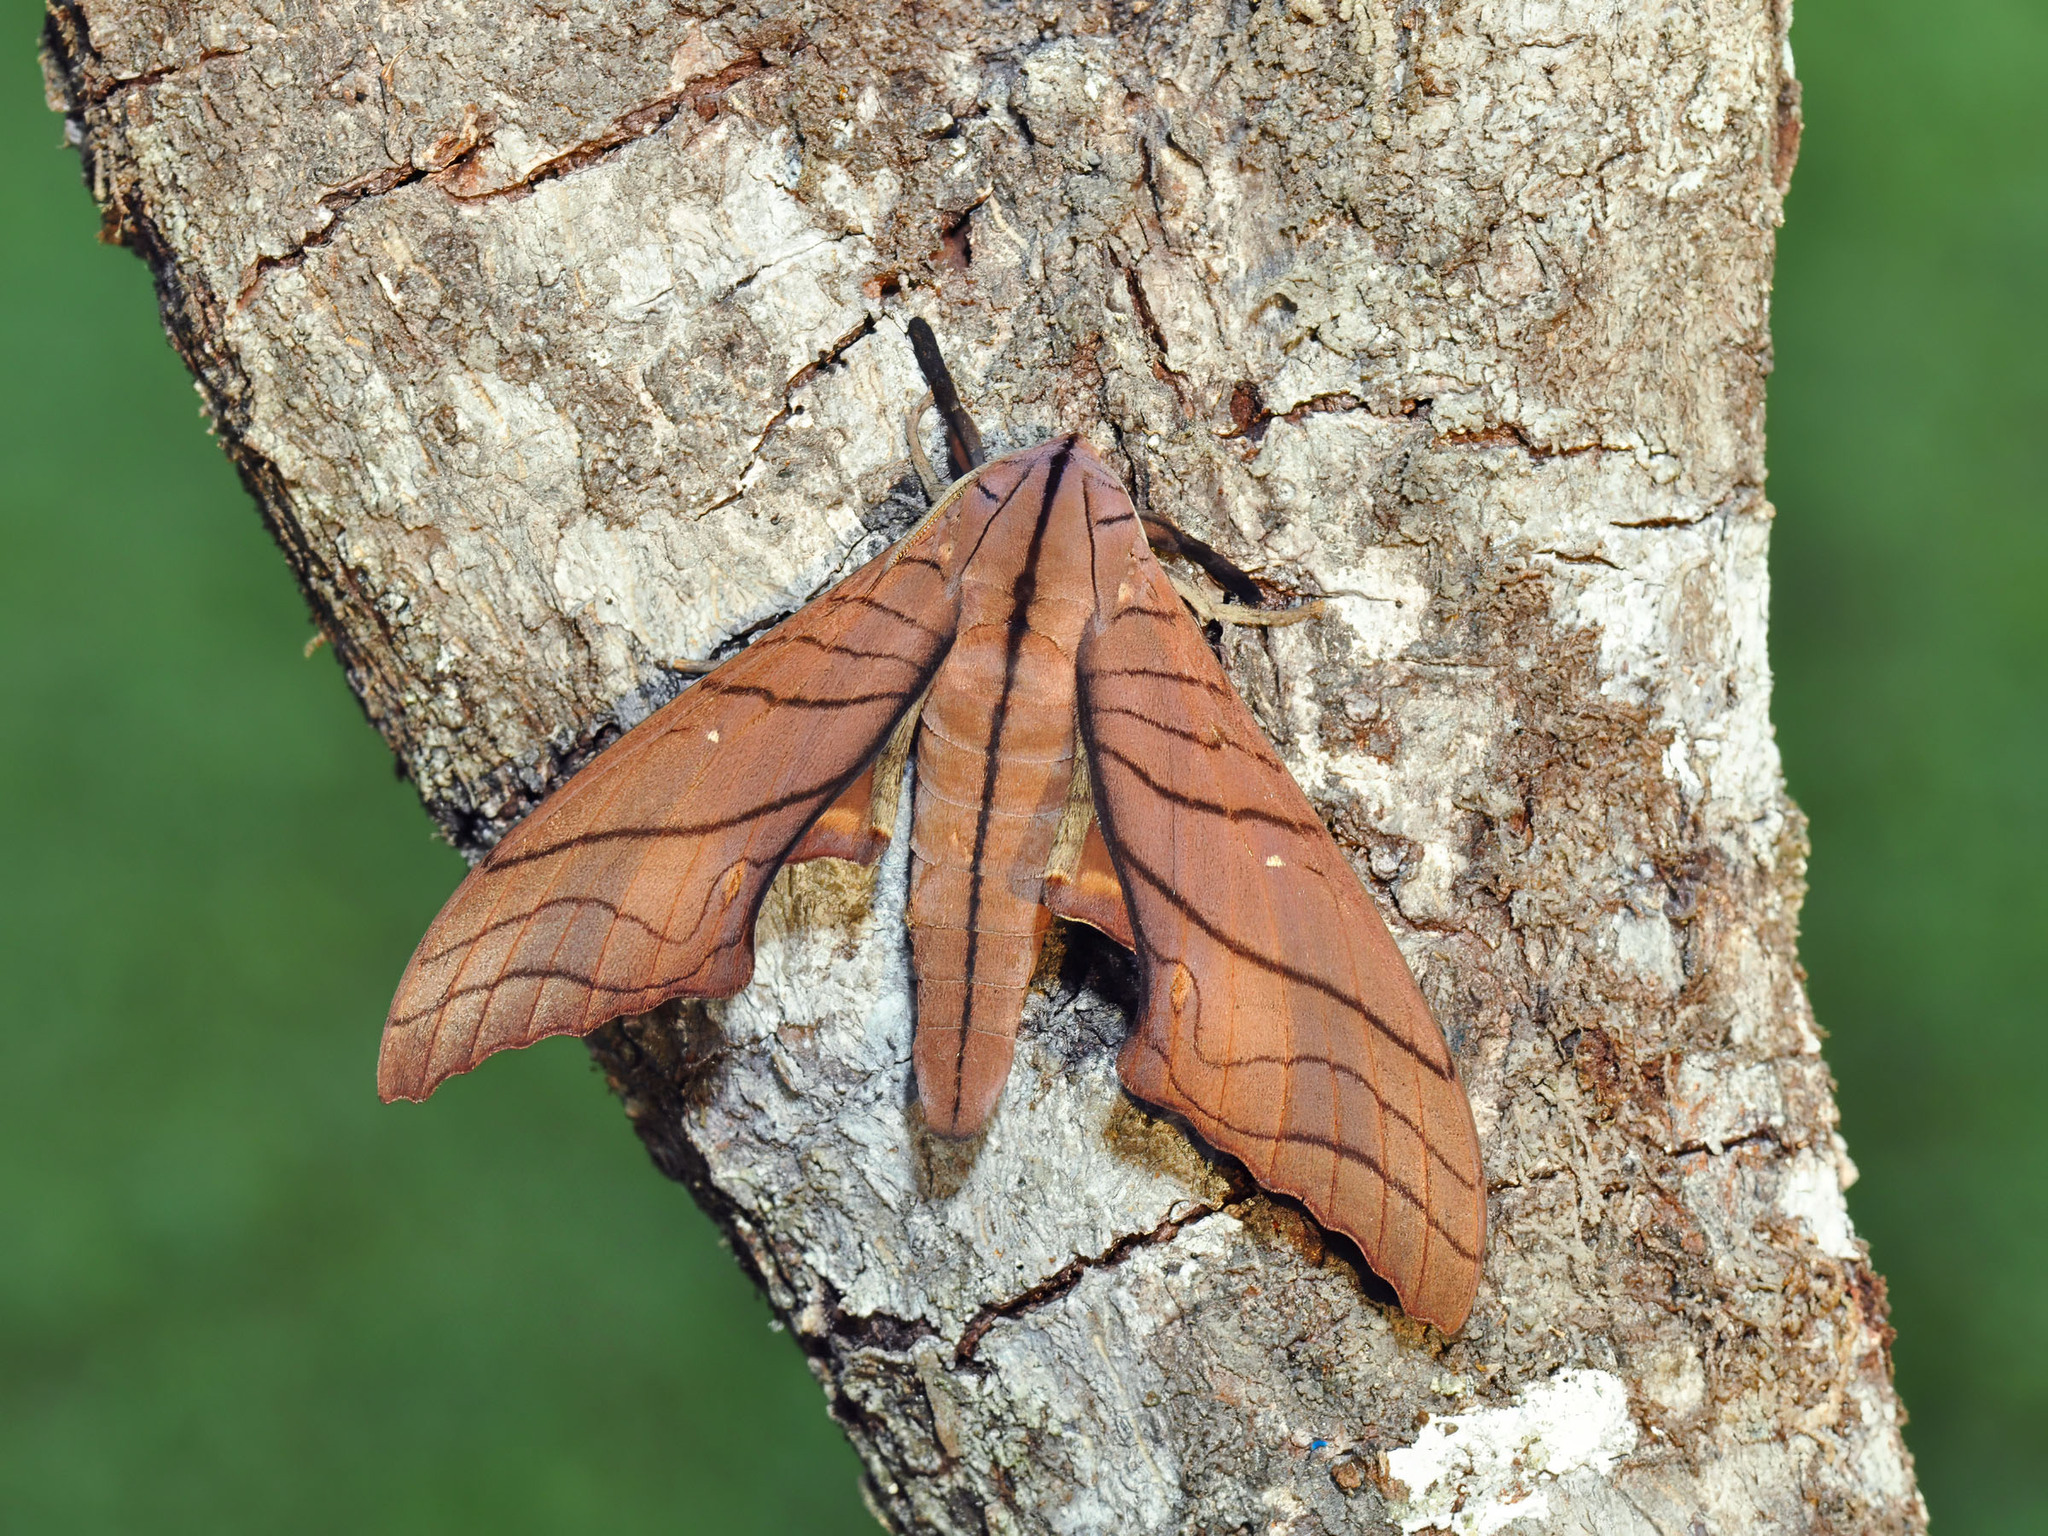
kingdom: Animalia
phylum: Arthropoda
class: Insecta
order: Lepidoptera
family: Sphingidae
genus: Marumba
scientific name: Marumba cristata
